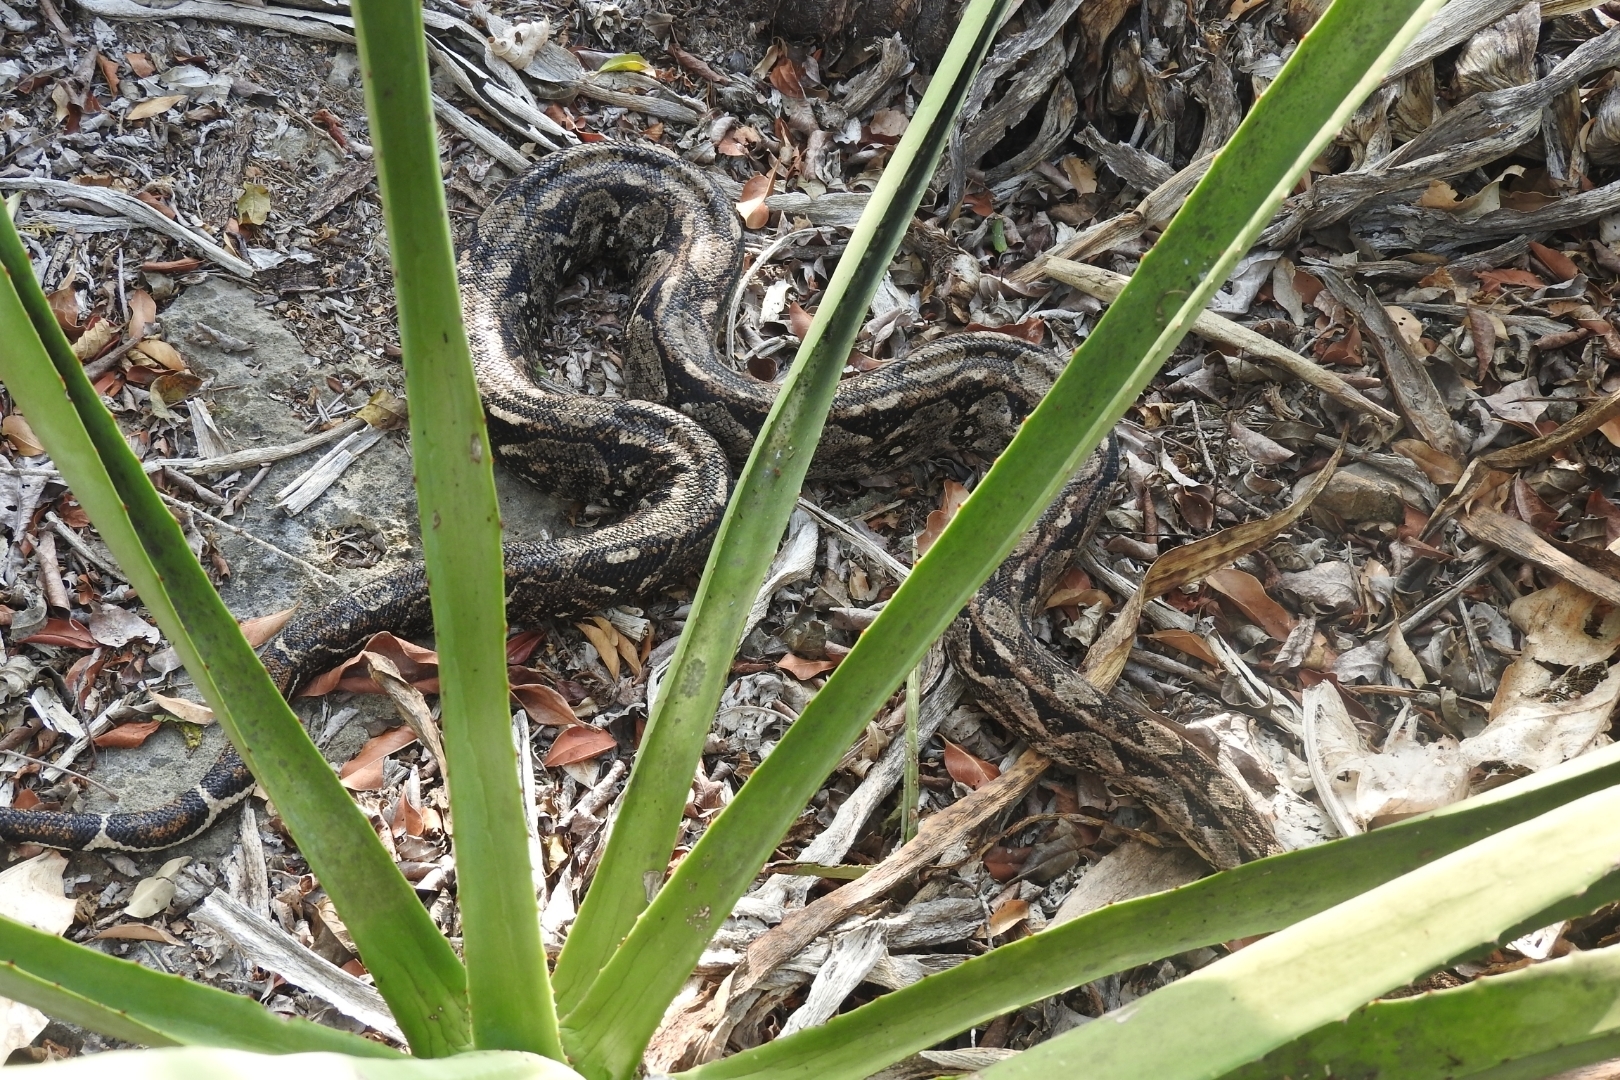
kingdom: Plantae
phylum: Tracheophyta
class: Liliopsida
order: Asparagales
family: Asparagaceae
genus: Agave
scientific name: Agave vivipara
